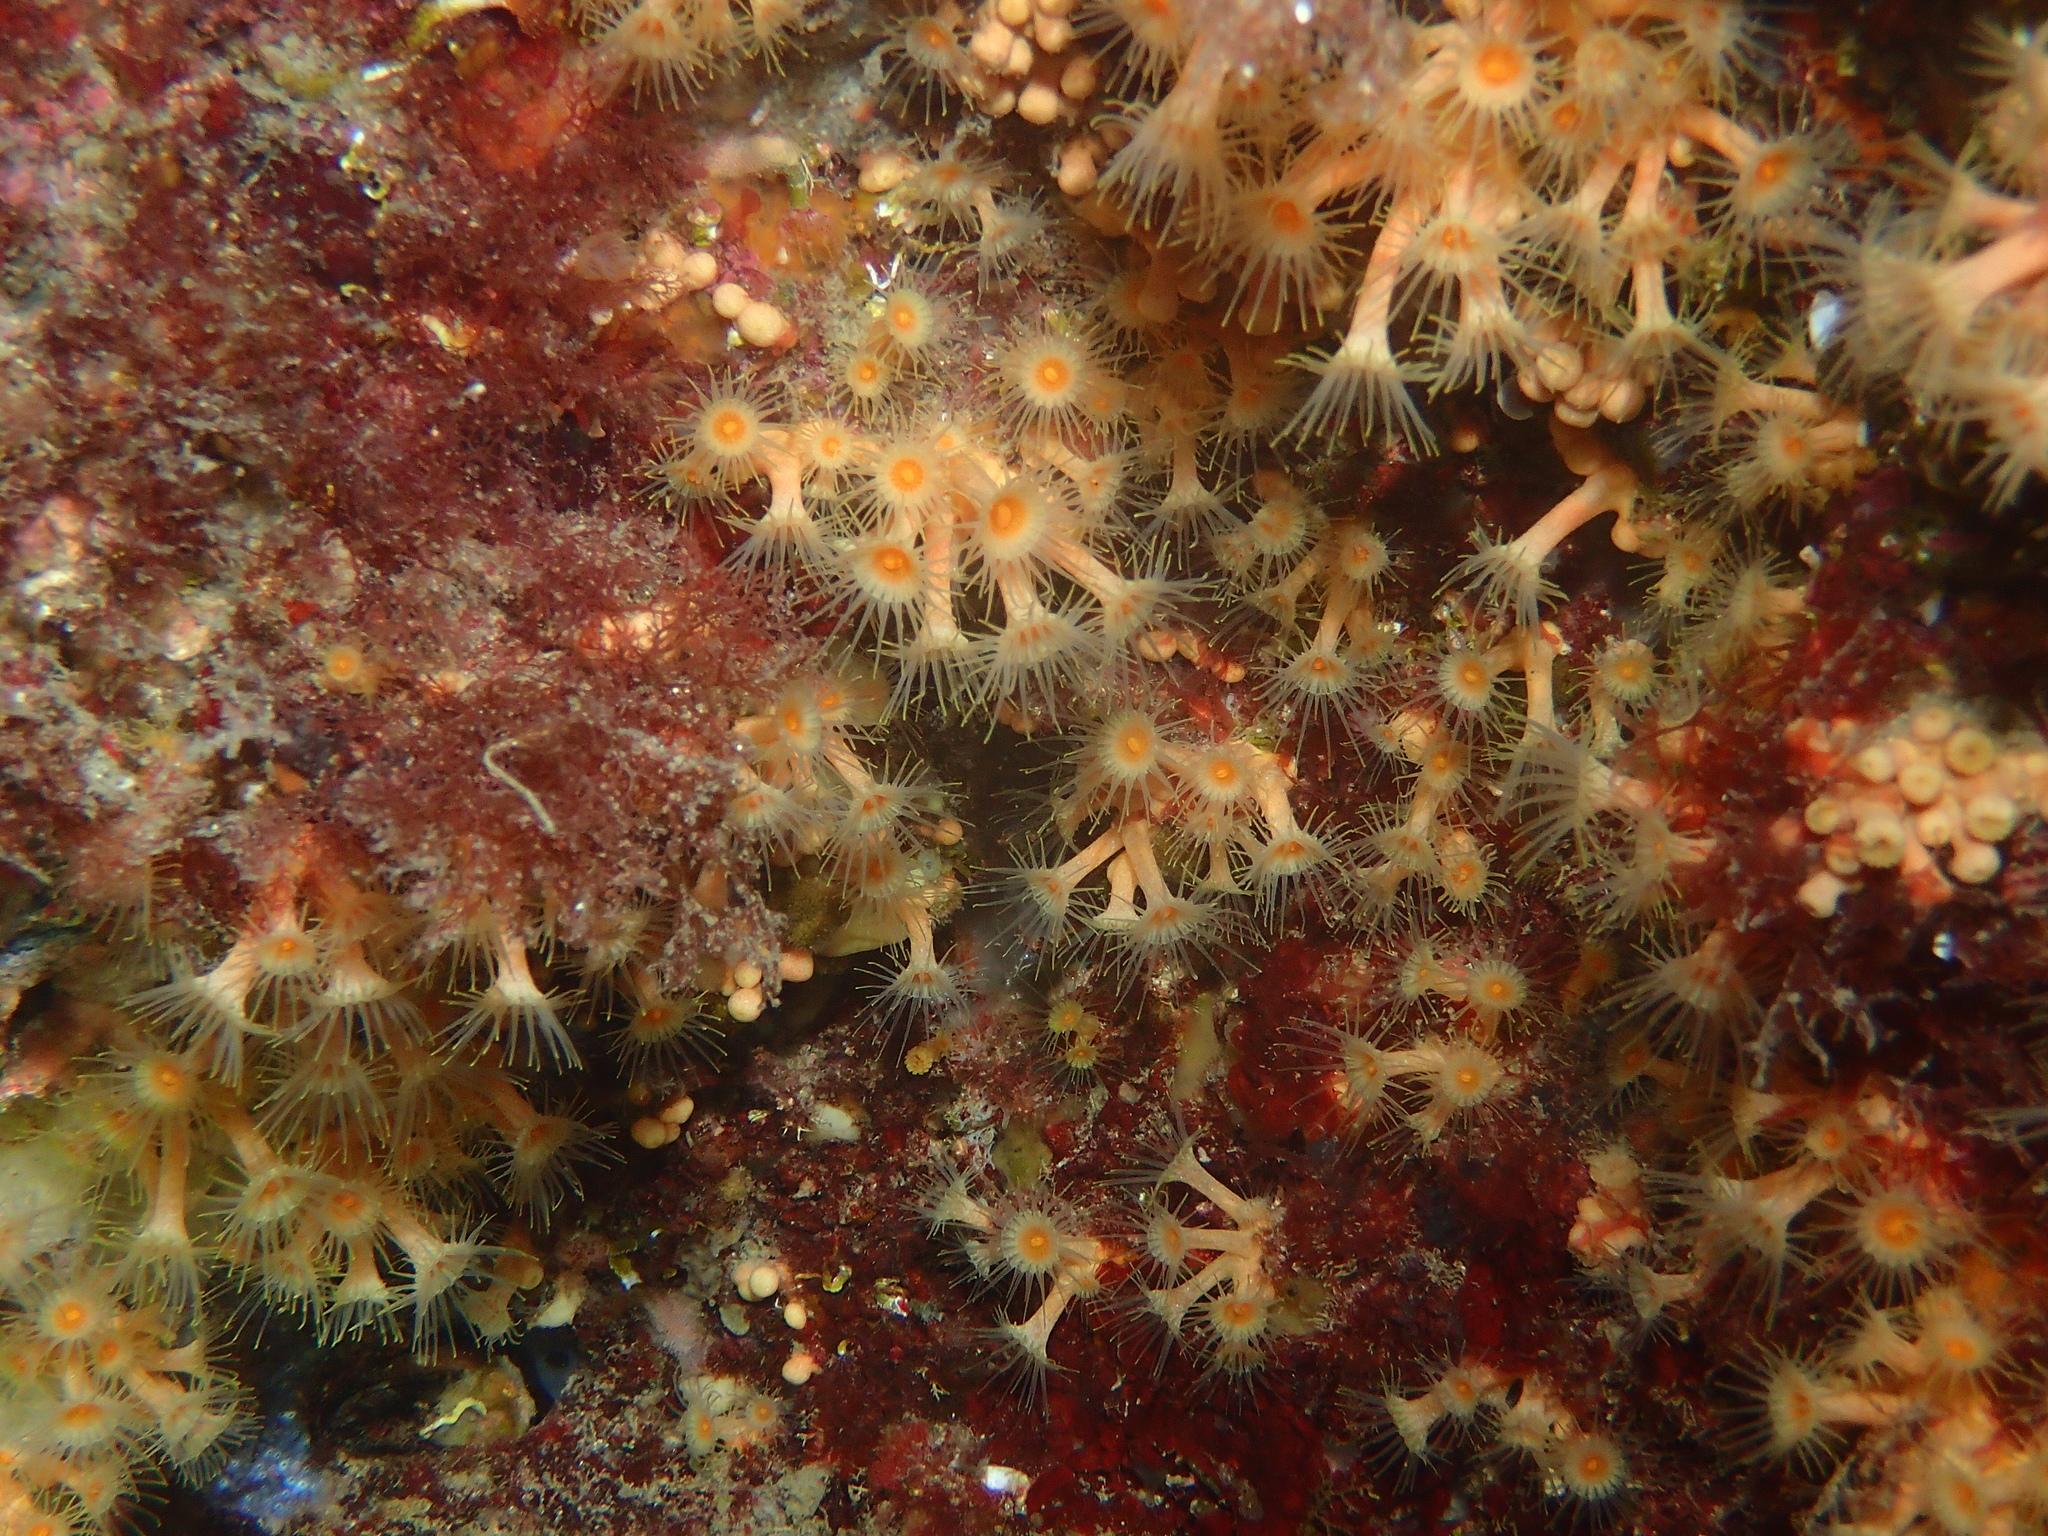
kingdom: Animalia
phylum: Cnidaria
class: Anthozoa
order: Zoantharia
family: Parazoanthidae
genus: Parazoanthus
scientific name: Parazoanthus axinellae
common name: Yellow cluster anemone
